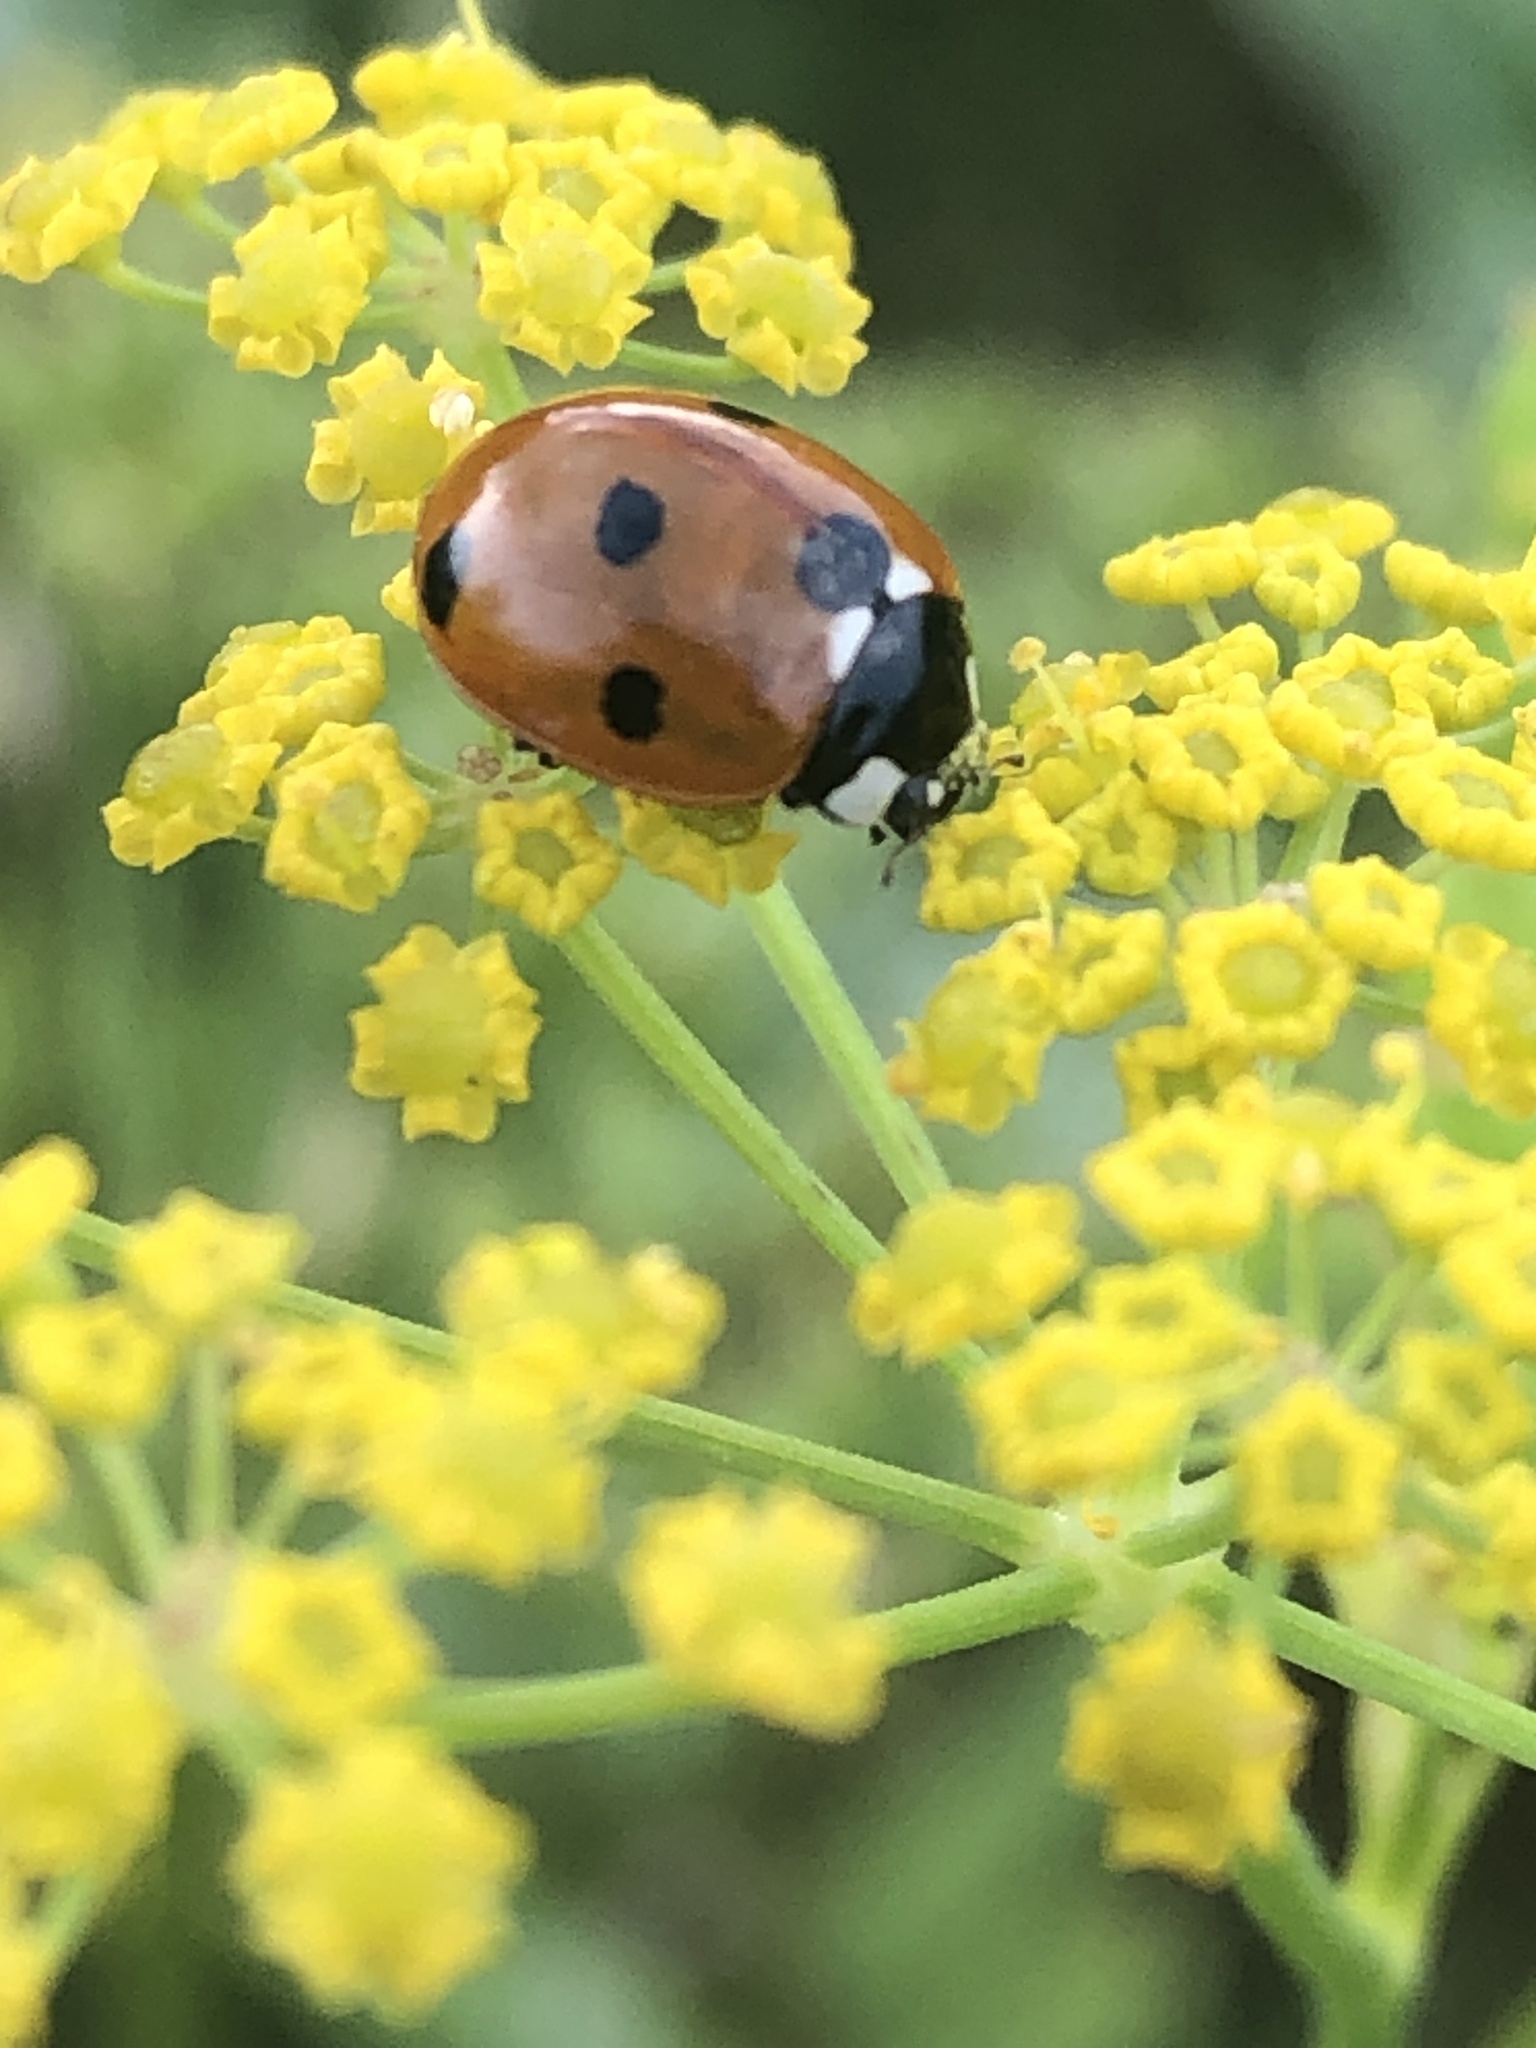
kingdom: Animalia
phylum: Arthropoda
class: Insecta
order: Coleoptera
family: Coccinellidae
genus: Coccinella
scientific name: Coccinella septempunctata
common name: Sevenspotted lady beetle
